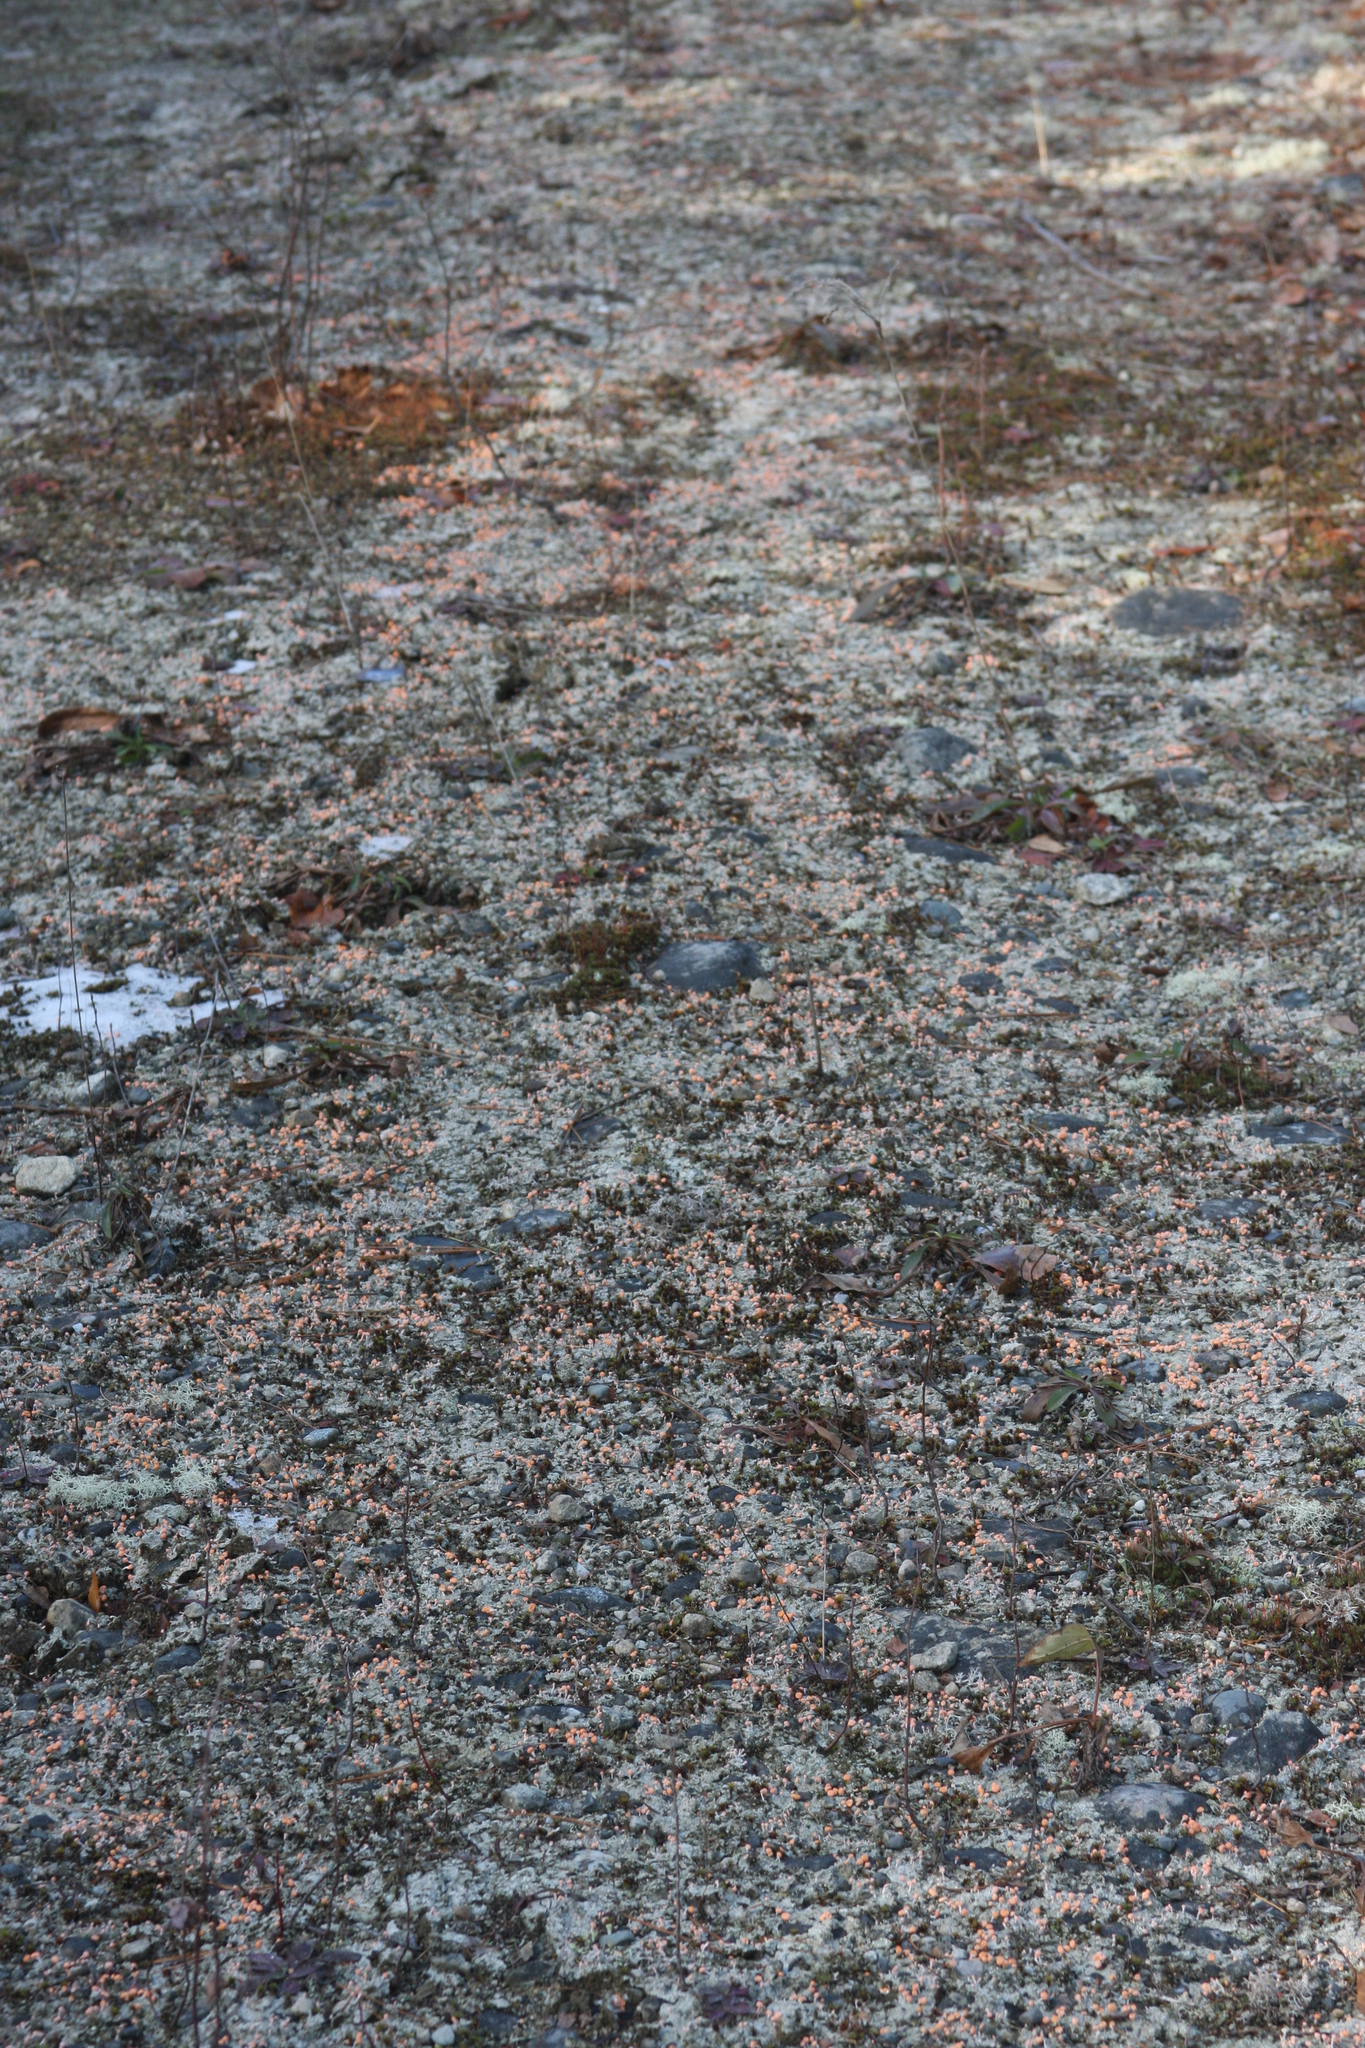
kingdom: Fungi
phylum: Ascomycota
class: Lecanoromycetes
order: Pertusariales
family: Icmadophilaceae
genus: Dibaeis
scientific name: Dibaeis baeomyces
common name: Pink earth lichen
